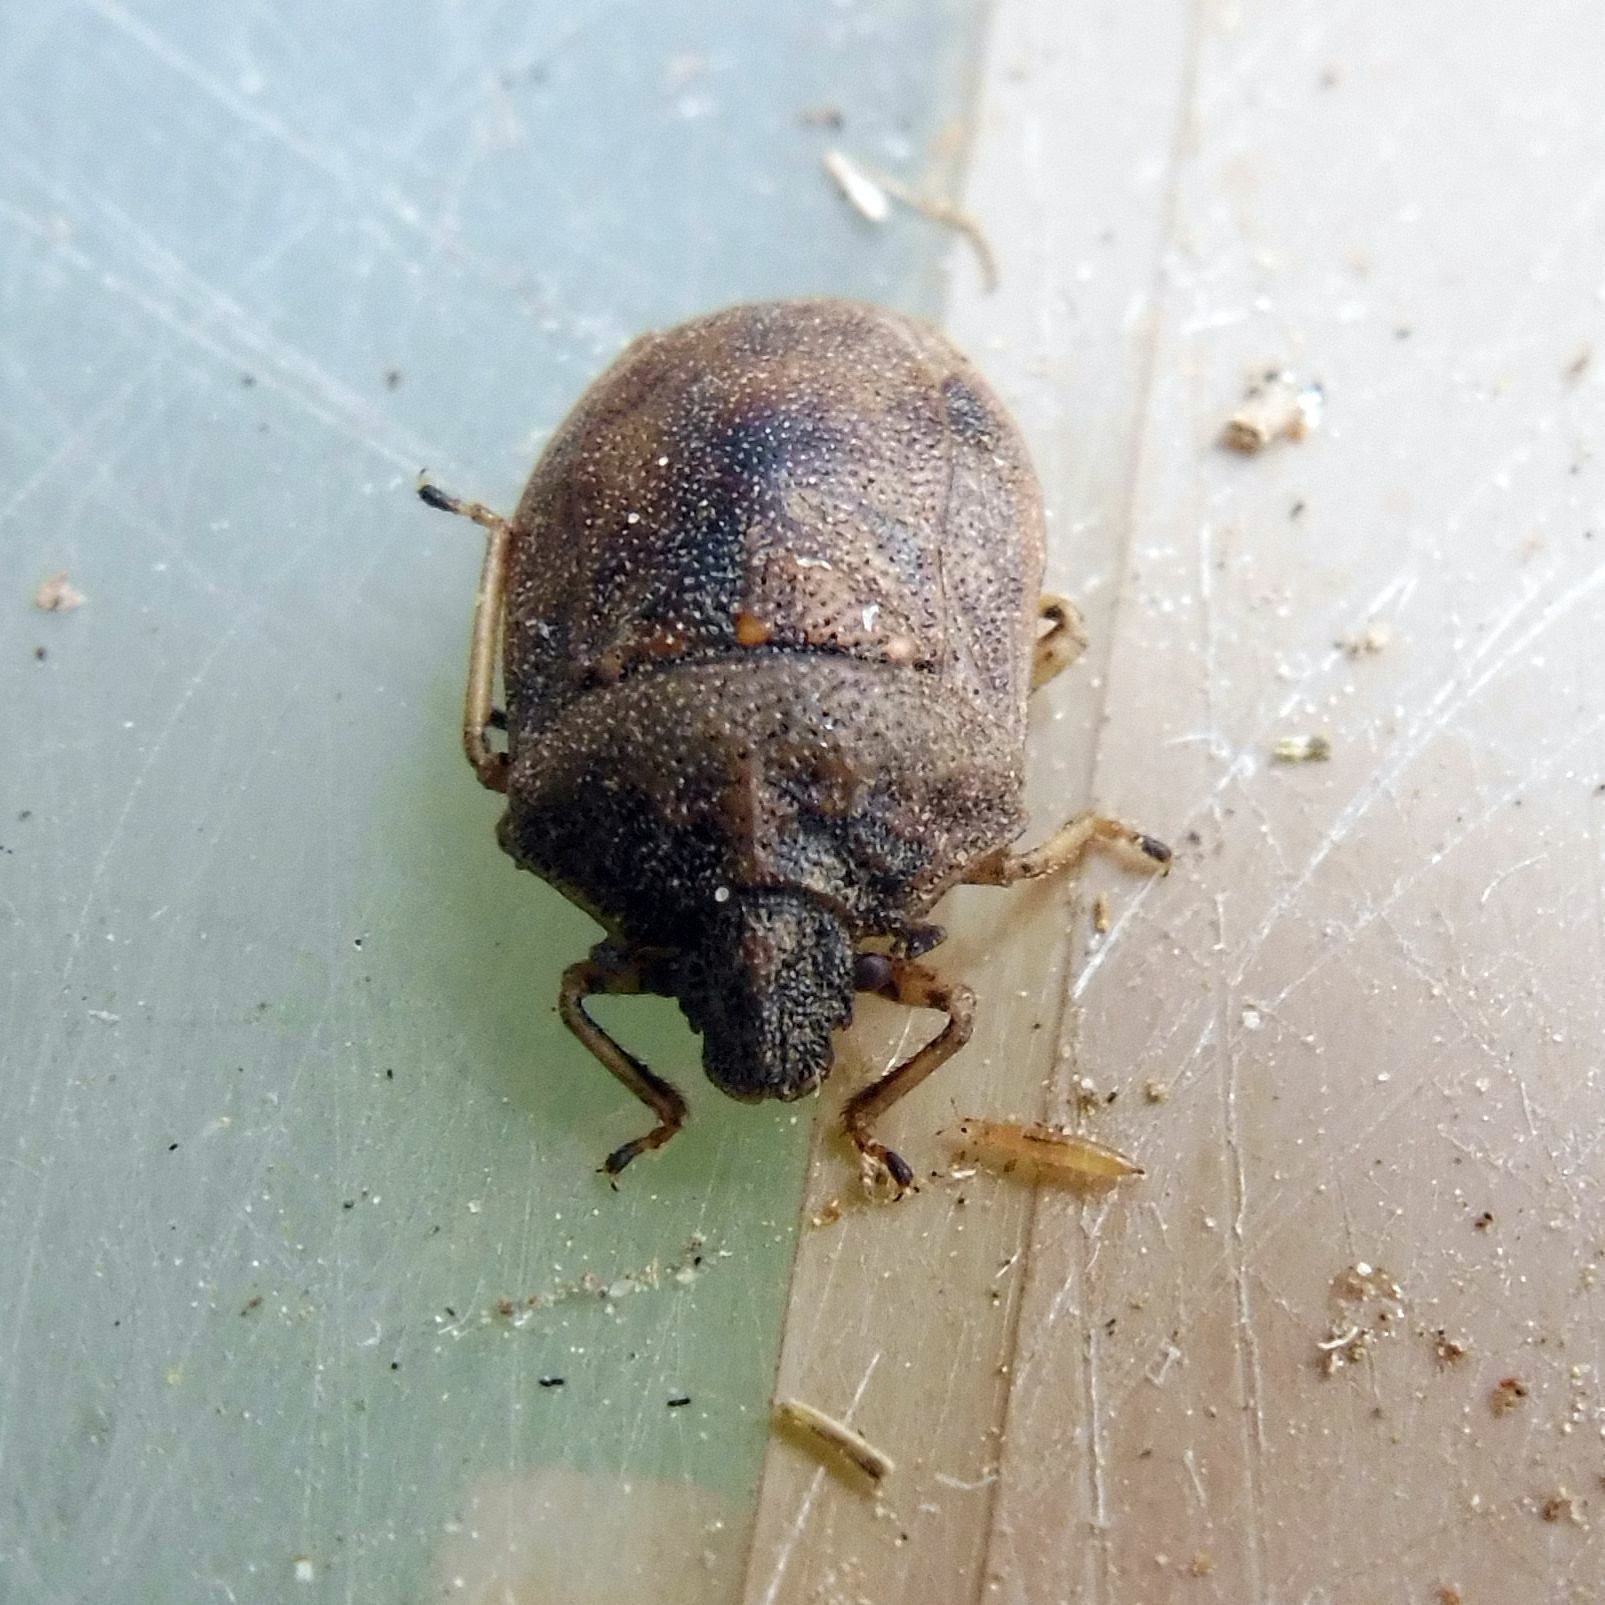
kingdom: Animalia
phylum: Arthropoda
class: Insecta
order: Hemiptera
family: Pentatomidae
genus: Podops
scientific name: Podops inunctus
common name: Turtle bug
